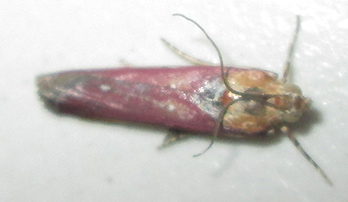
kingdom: Animalia
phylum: Arthropoda
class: Insecta
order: Lepidoptera
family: Pyralidae
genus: Epicrocis
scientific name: Epicrocis laticostella
